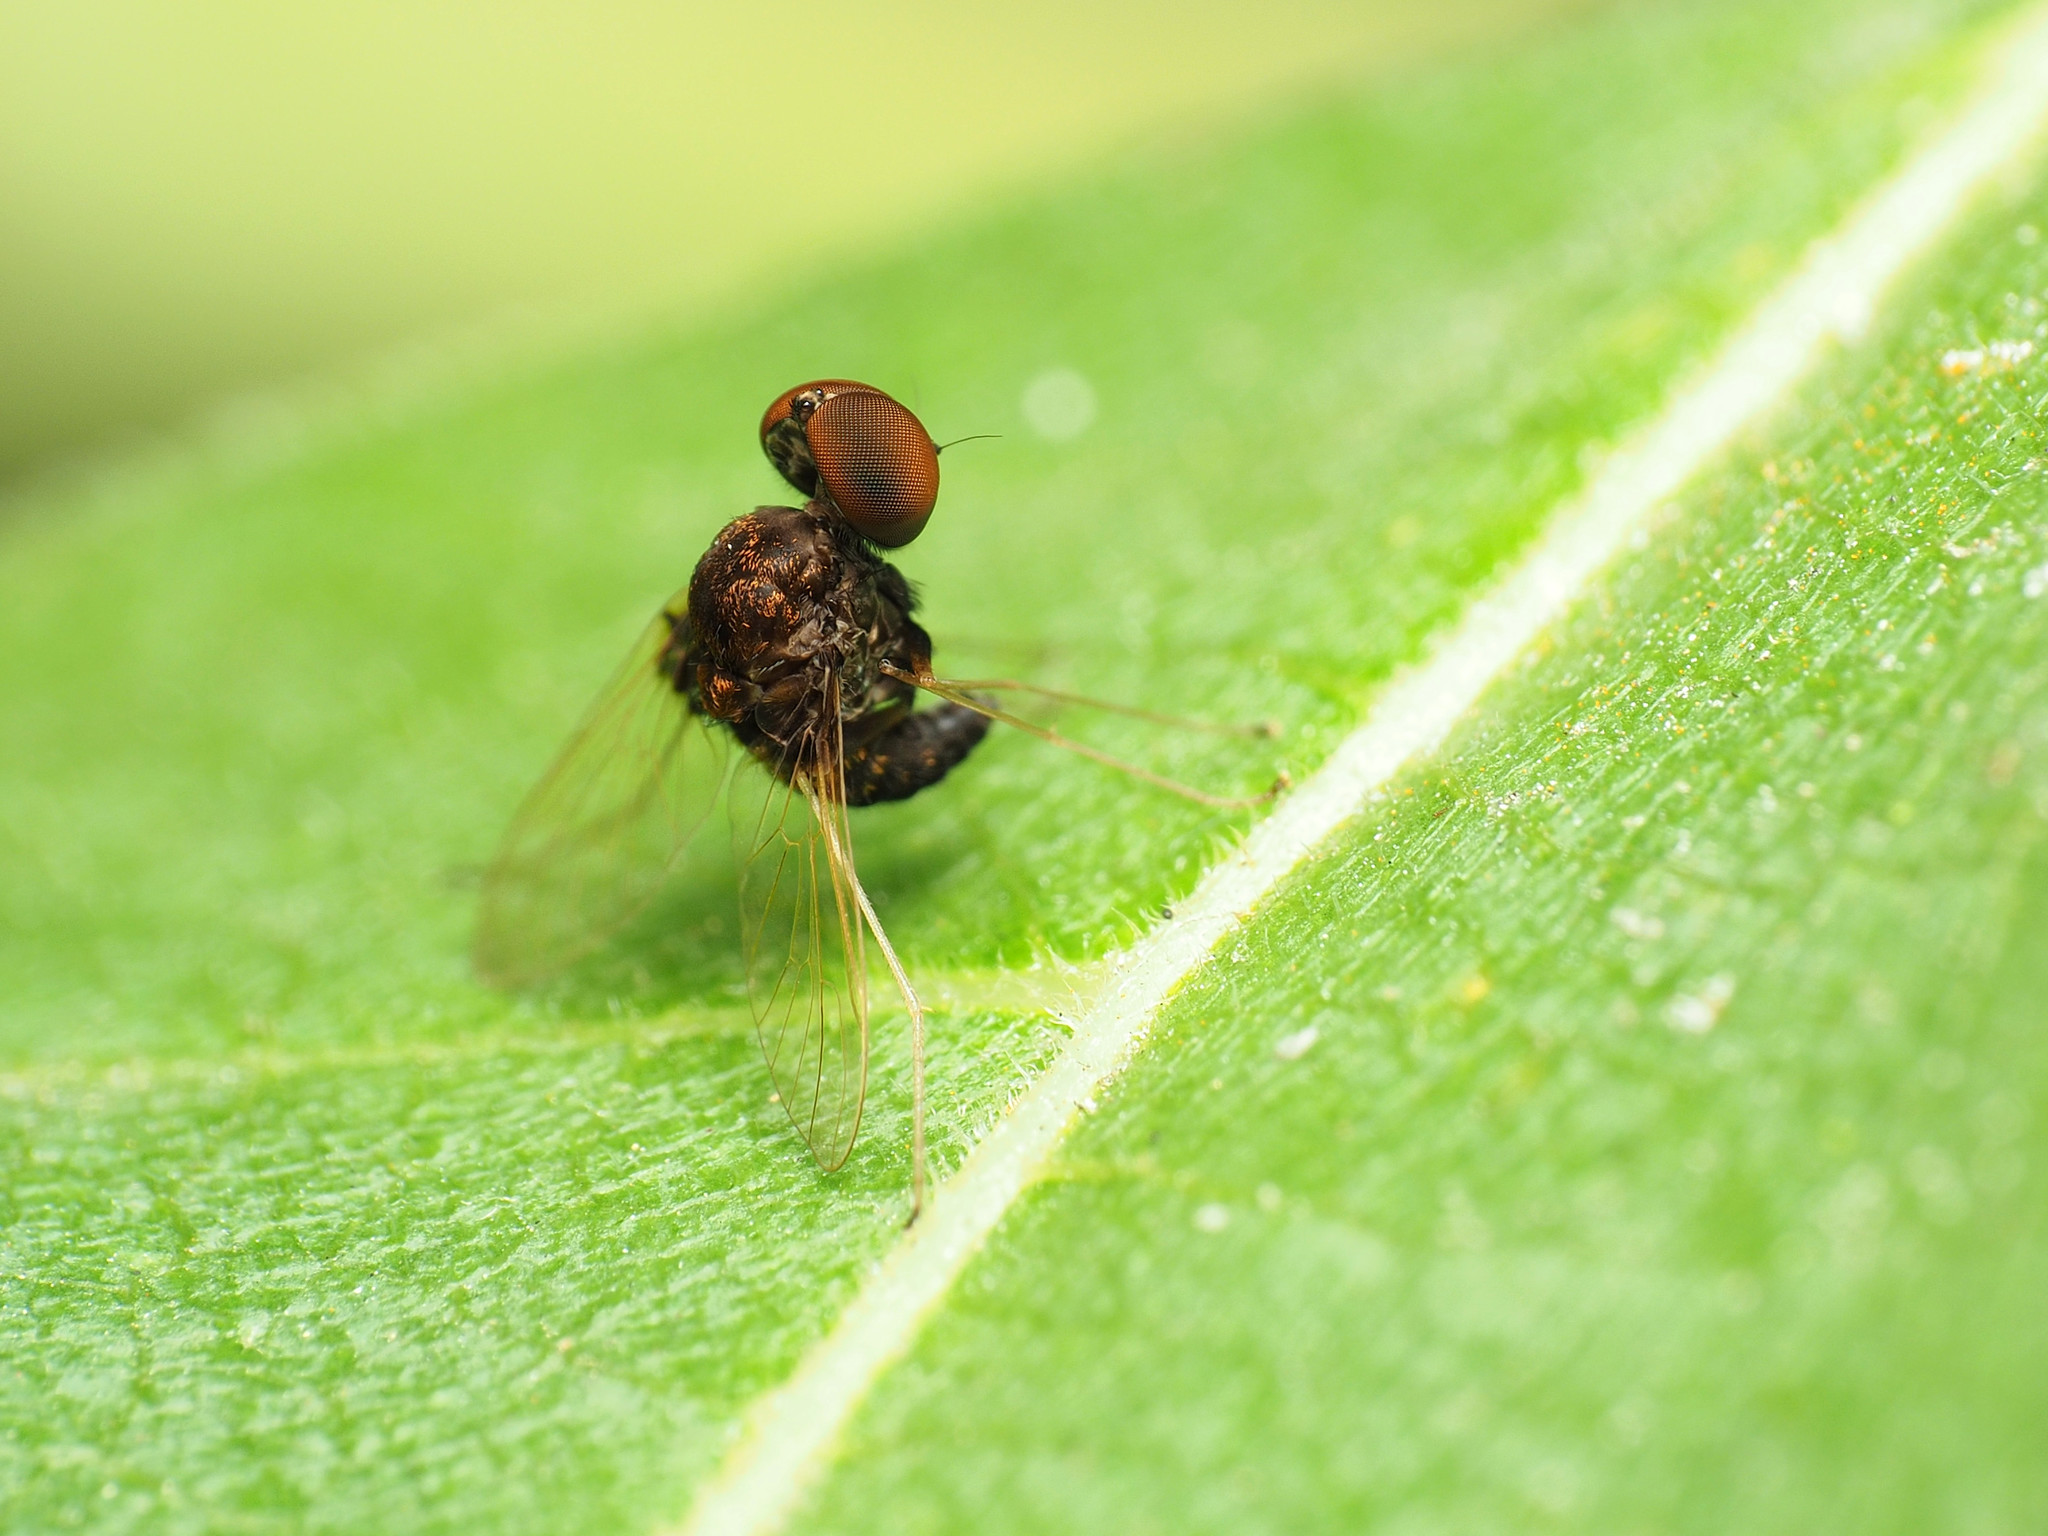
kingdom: Animalia
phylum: Arthropoda
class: Insecta
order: Diptera
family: Rhagionidae
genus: Chrysopilus
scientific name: Chrysopilus basilaris
